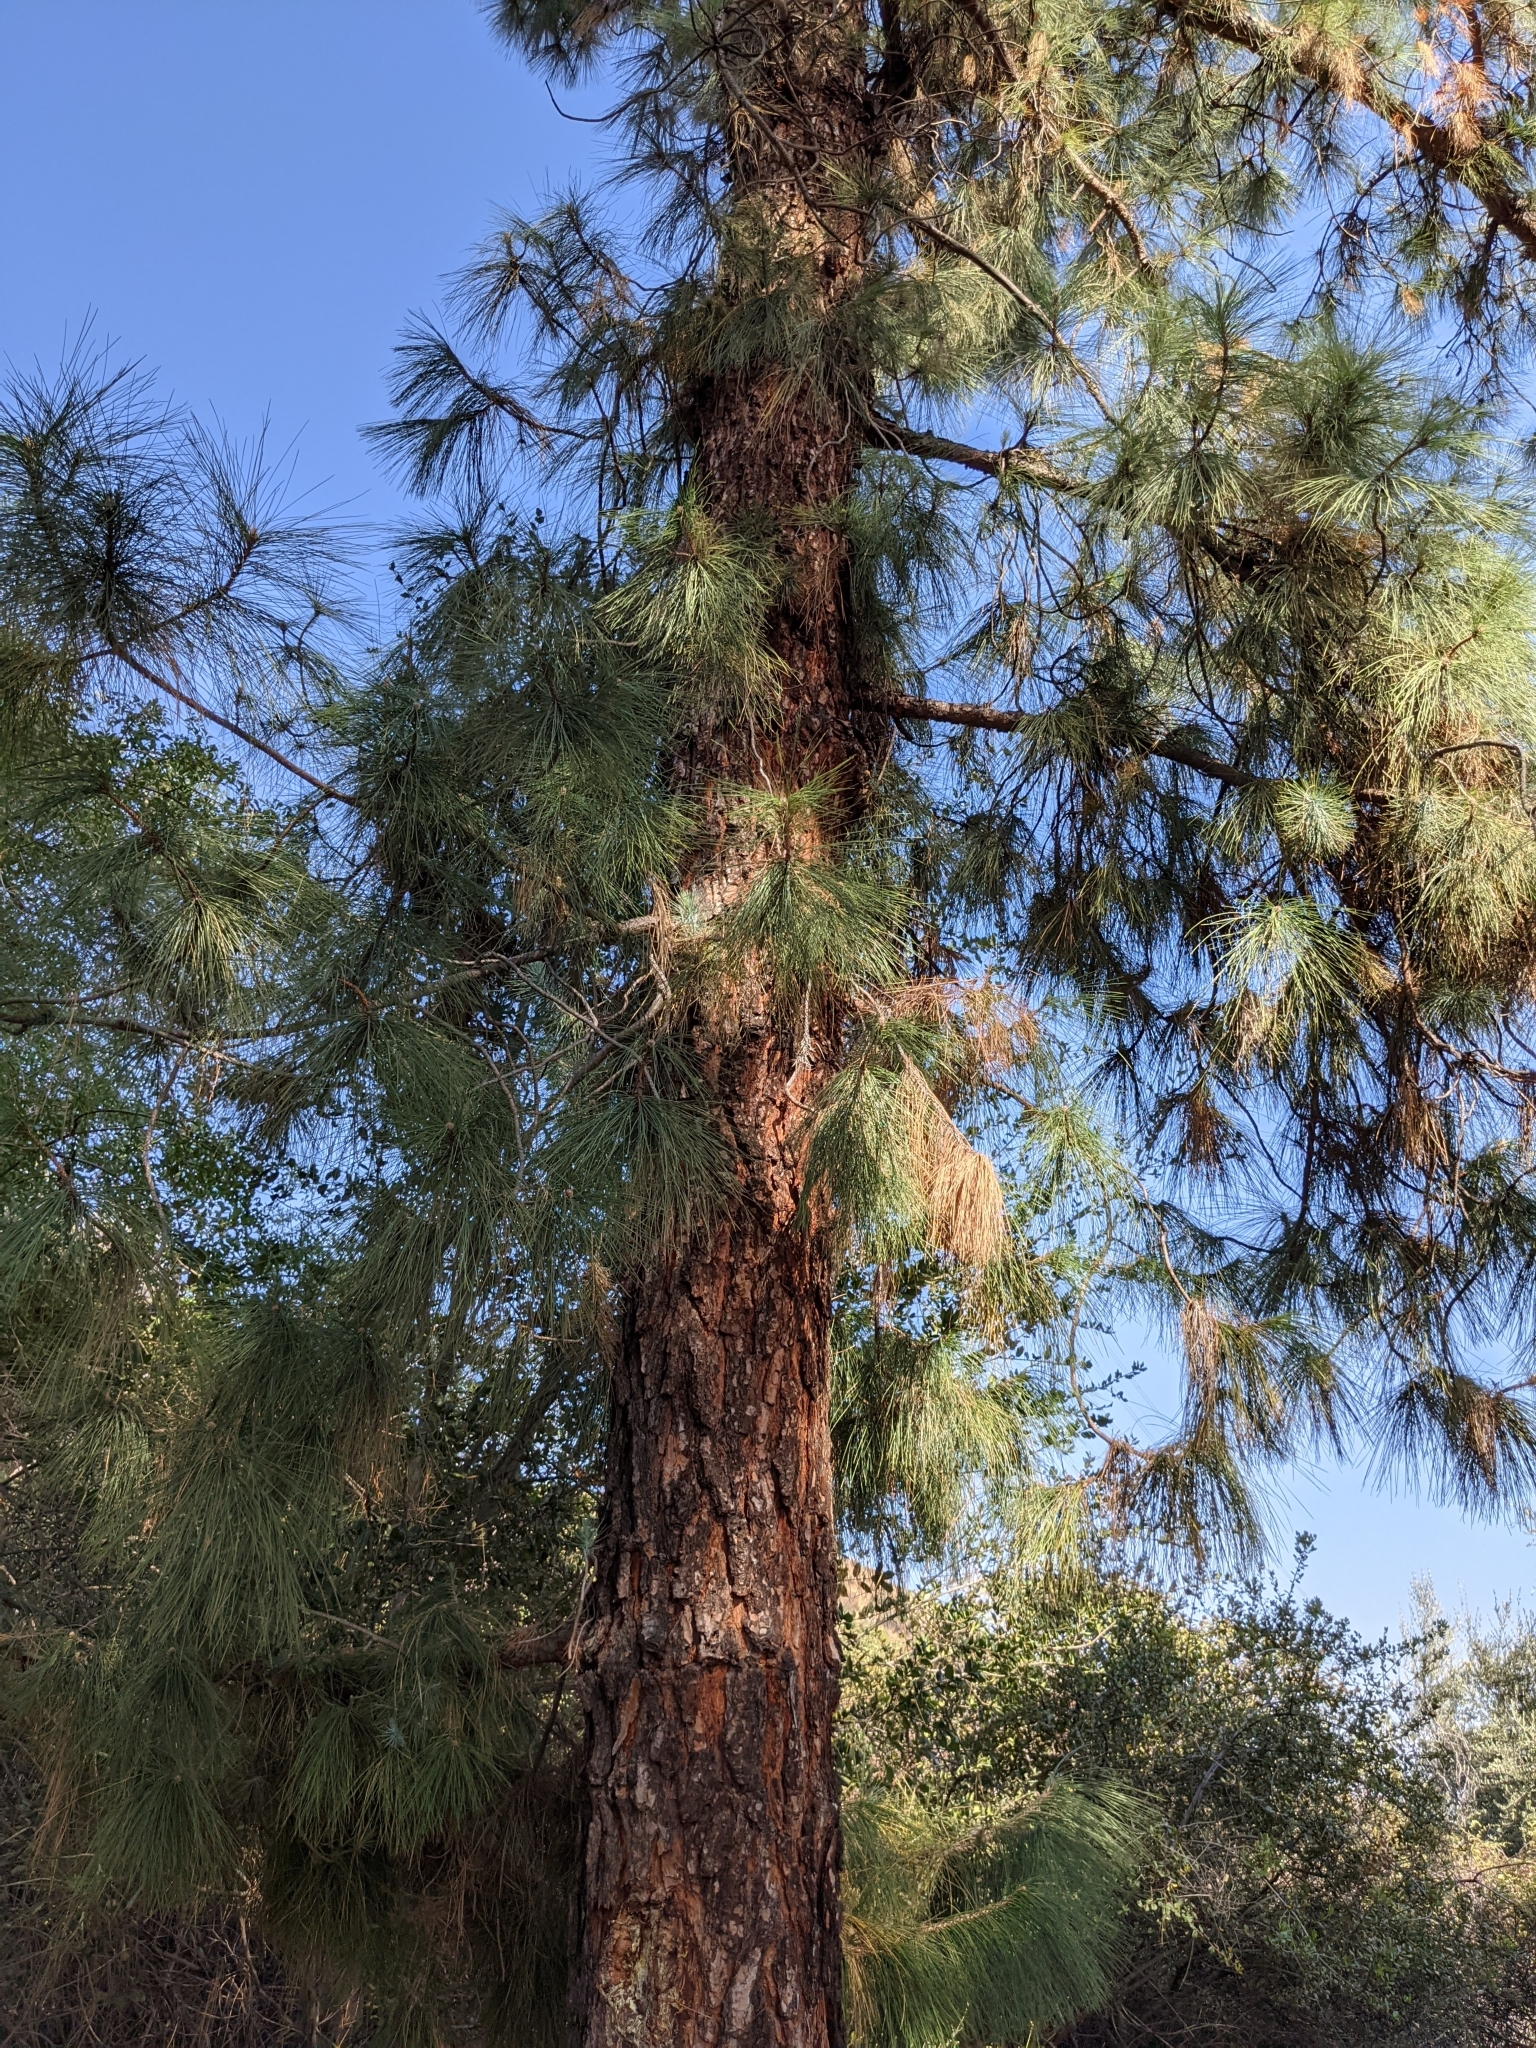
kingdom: Plantae
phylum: Tracheophyta
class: Pinopsida
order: Pinales
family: Pinaceae
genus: Pinus
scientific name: Pinus canariensis
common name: Canary islands pine
